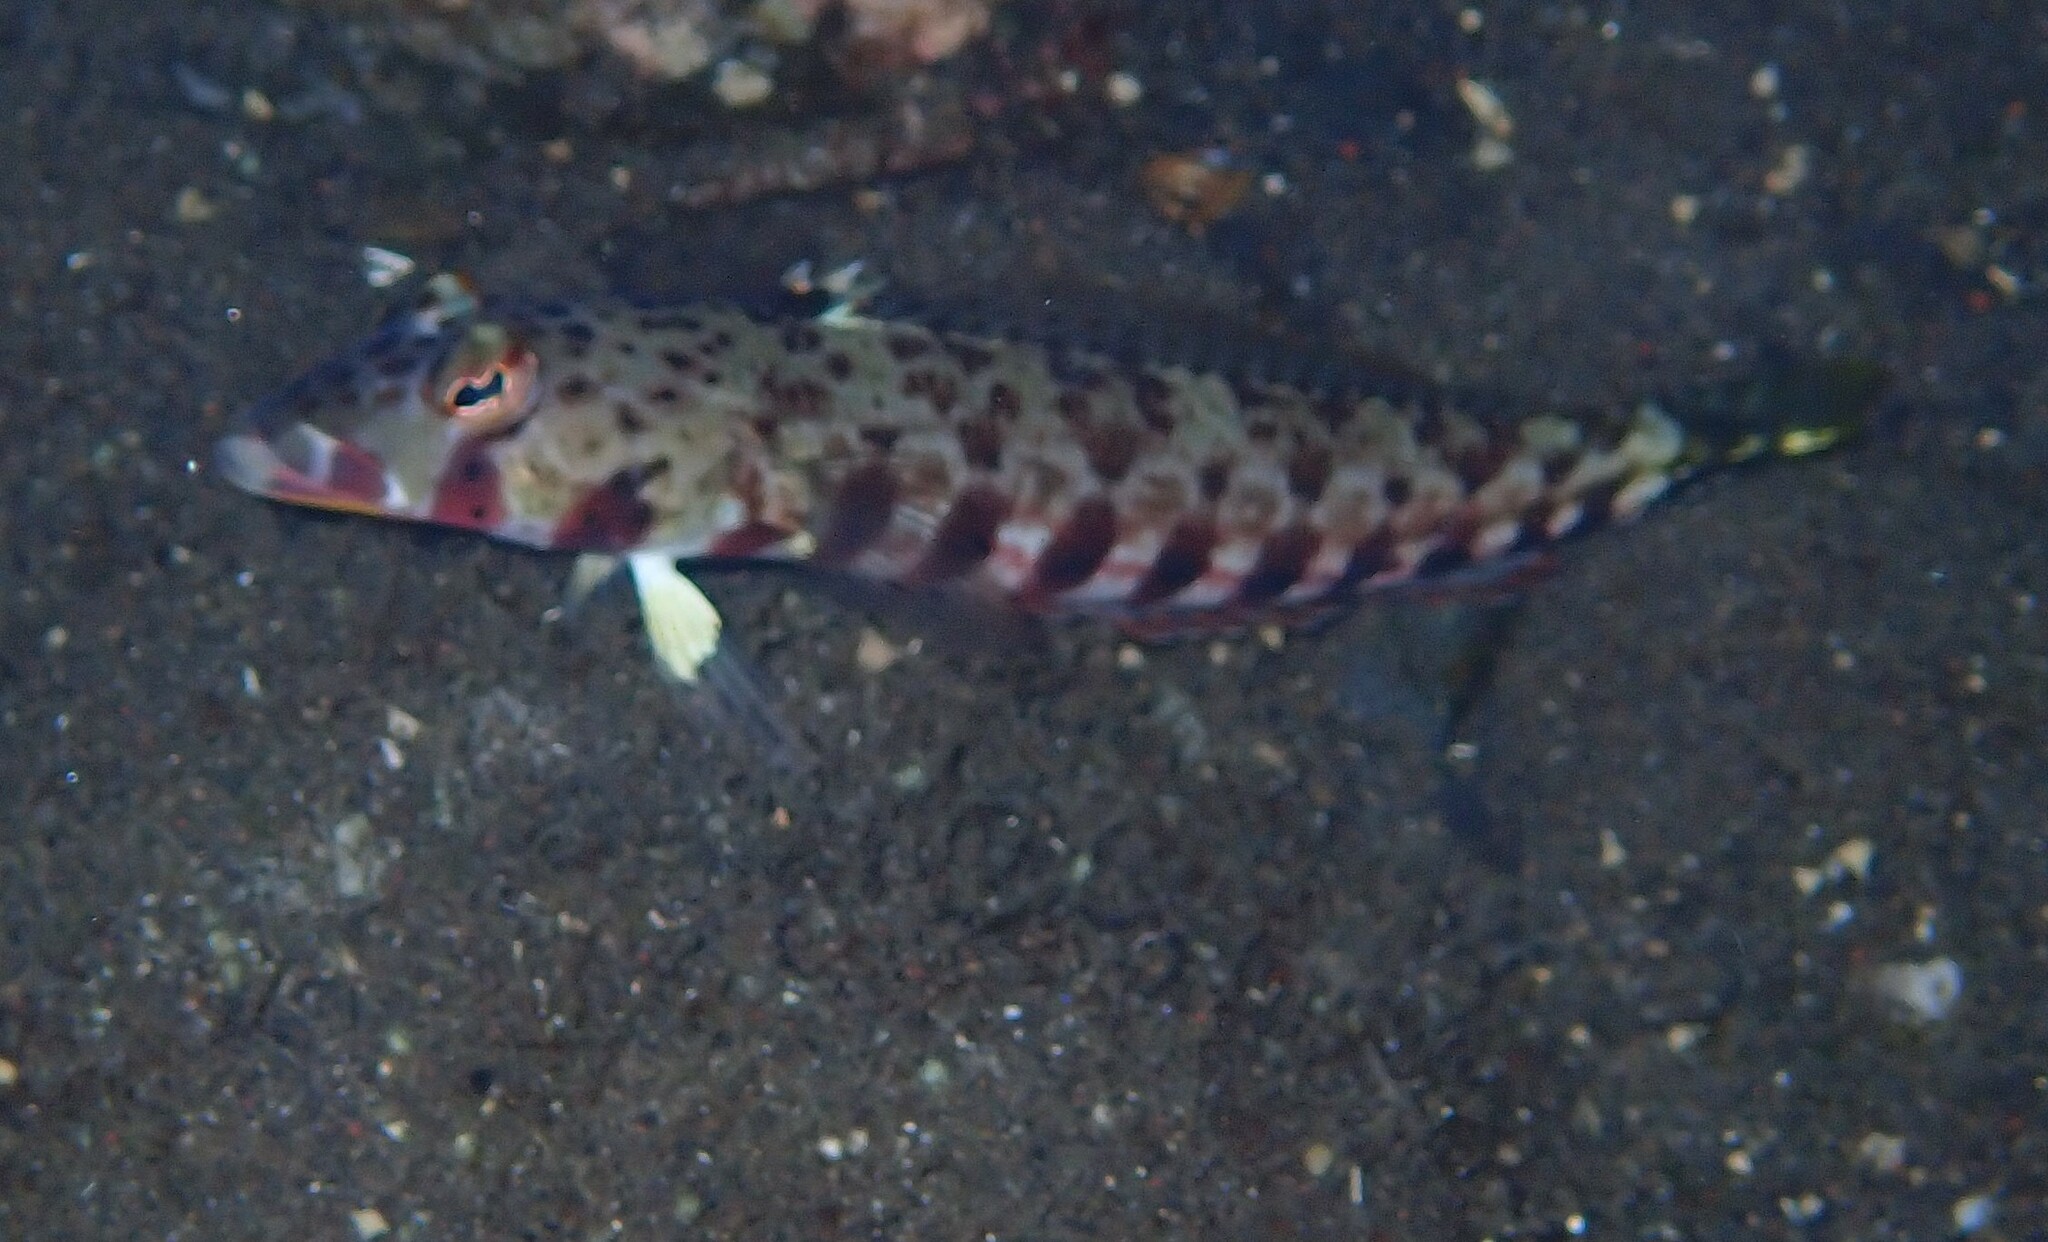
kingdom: Animalia
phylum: Chordata
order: Perciformes
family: Pinguipedidae
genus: Parapercis
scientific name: Parapercis bimacula
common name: Redbar sandperch
